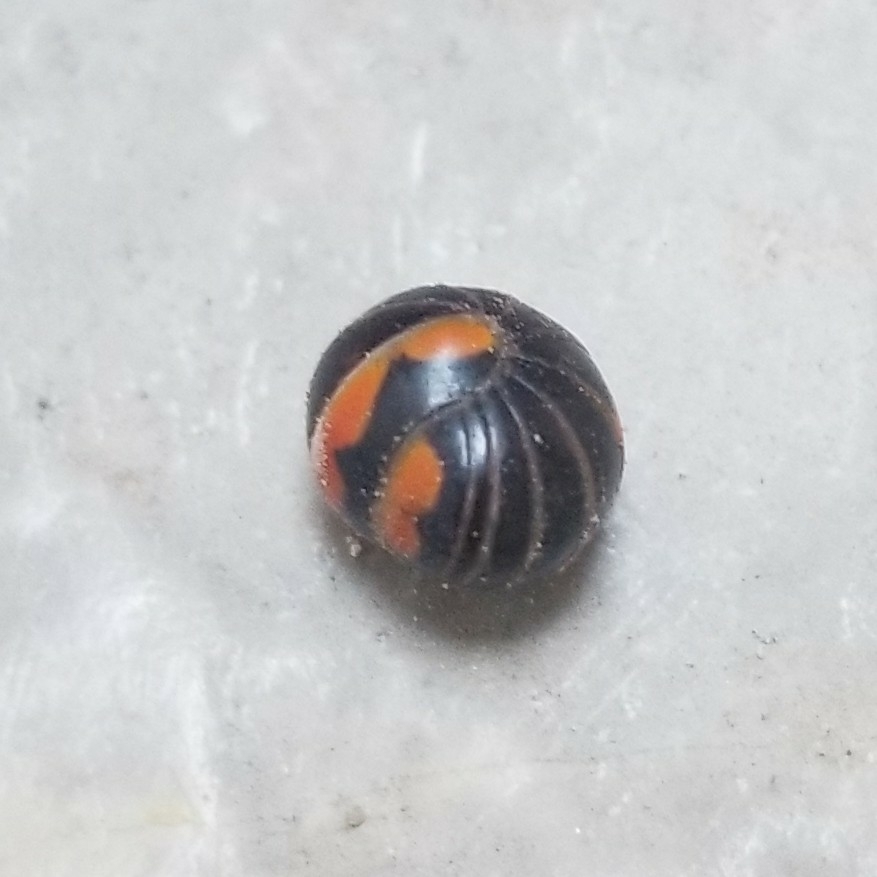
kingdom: Animalia
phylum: Arthropoda
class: Diplopoda
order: Glomerida
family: Glomeridae
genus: Glomeris
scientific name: Glomeris pulchra
